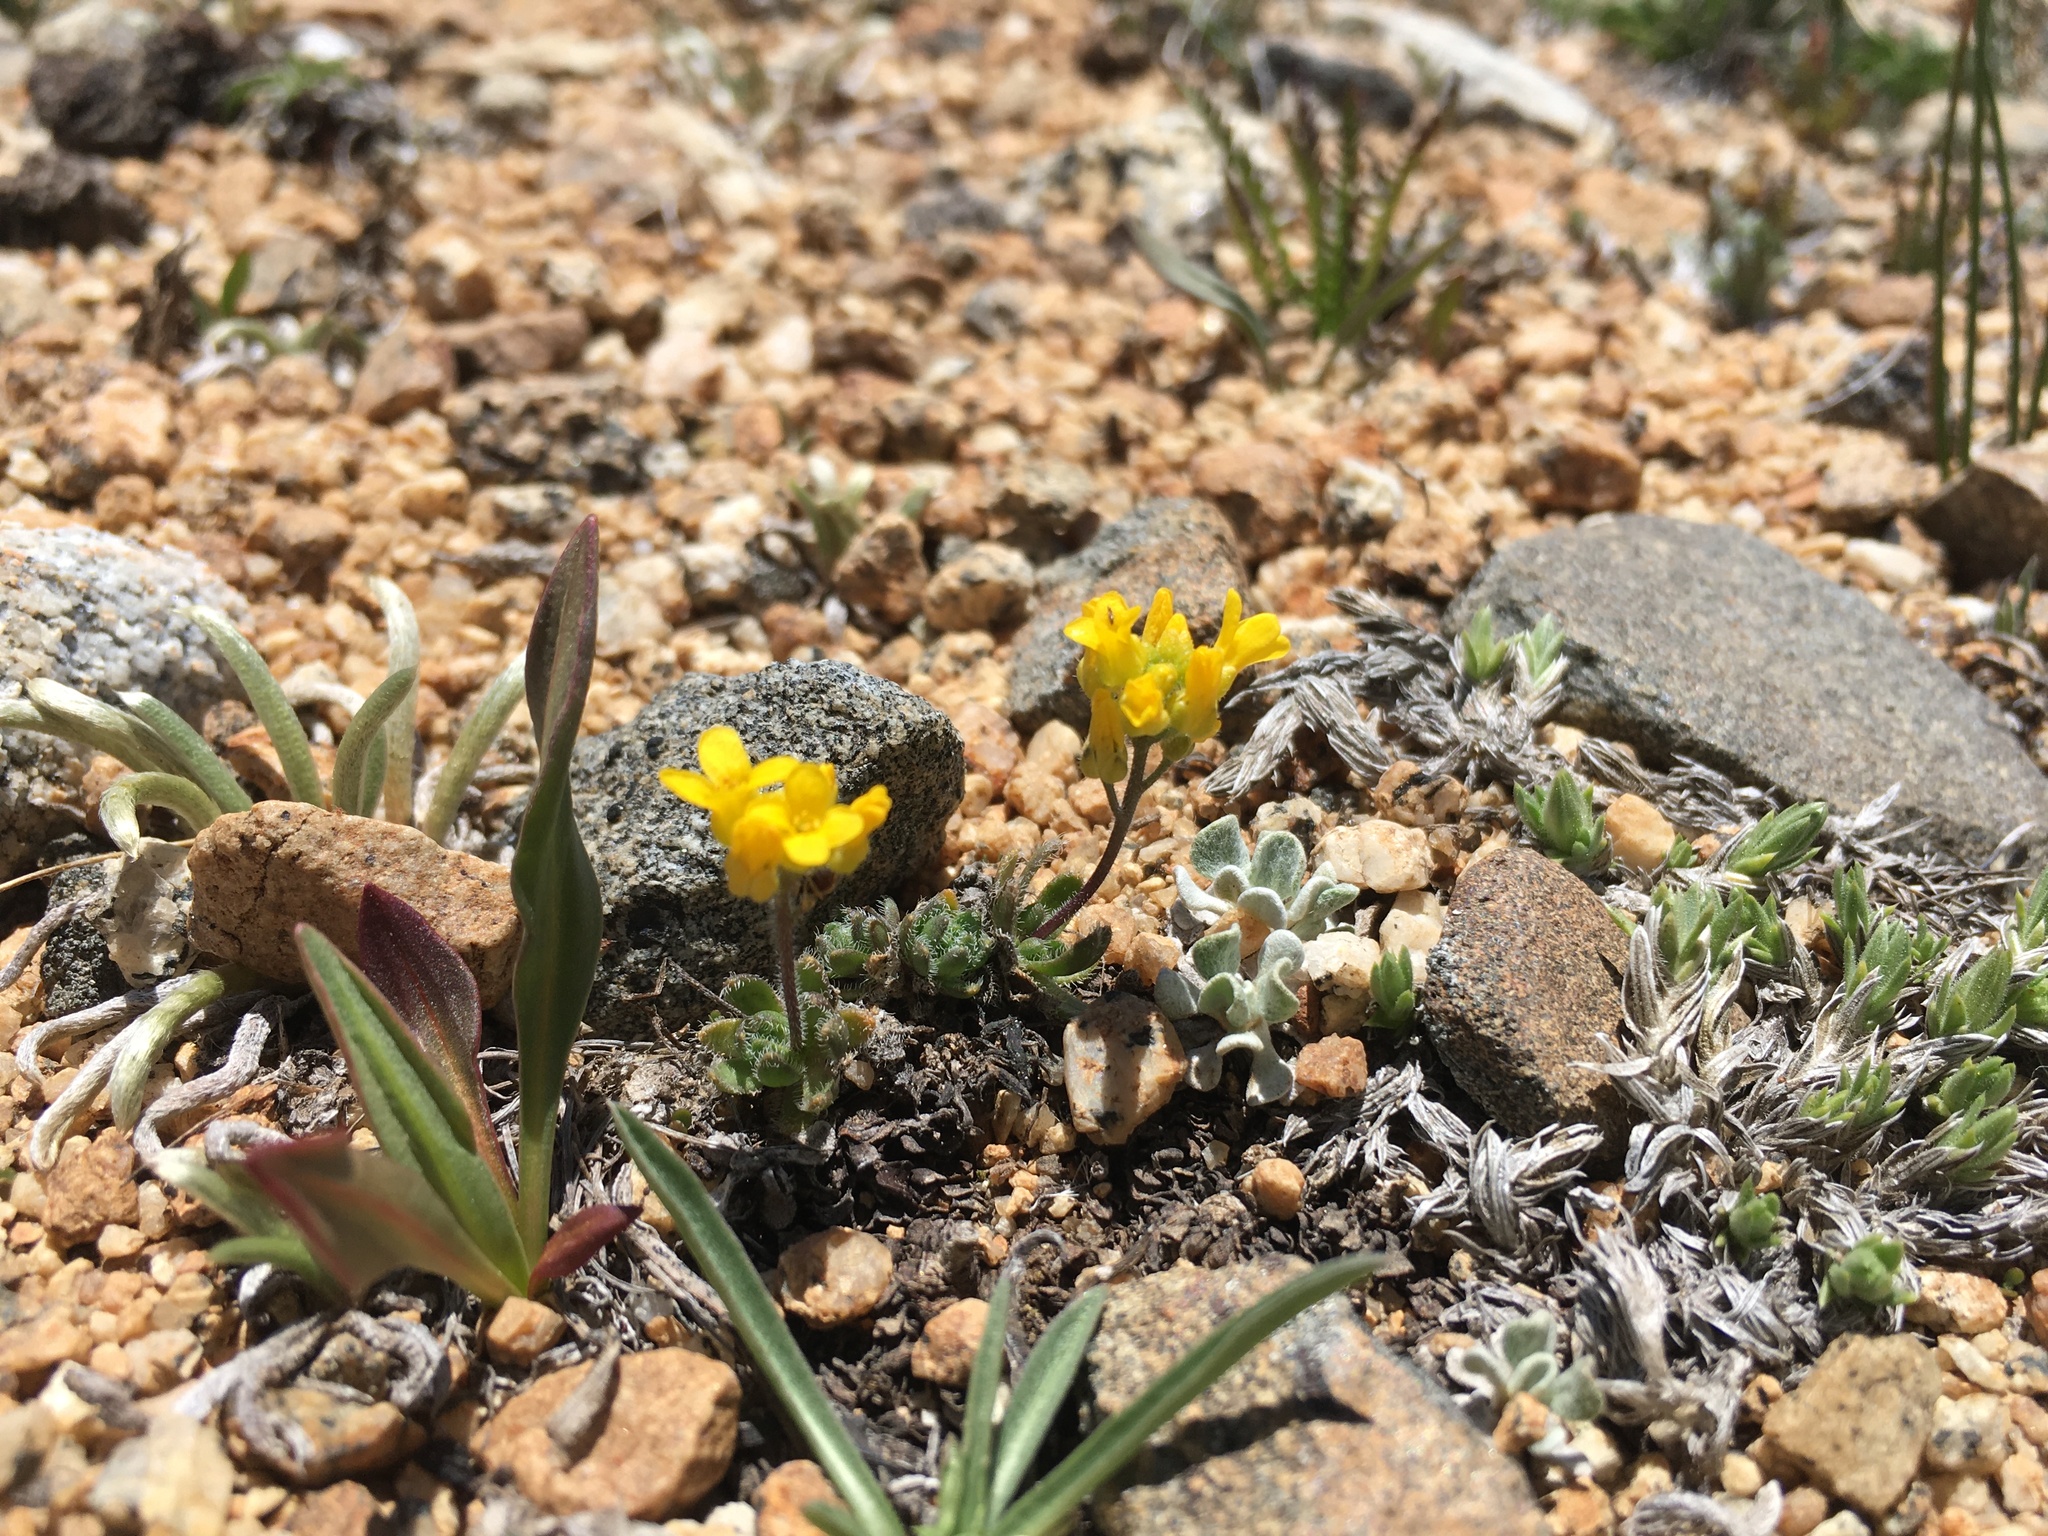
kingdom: Plantae
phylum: Tracheophyta
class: Magnoliopsida
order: Brassicales
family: Brassicaceae
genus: Draba
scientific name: Draba lemmonii
